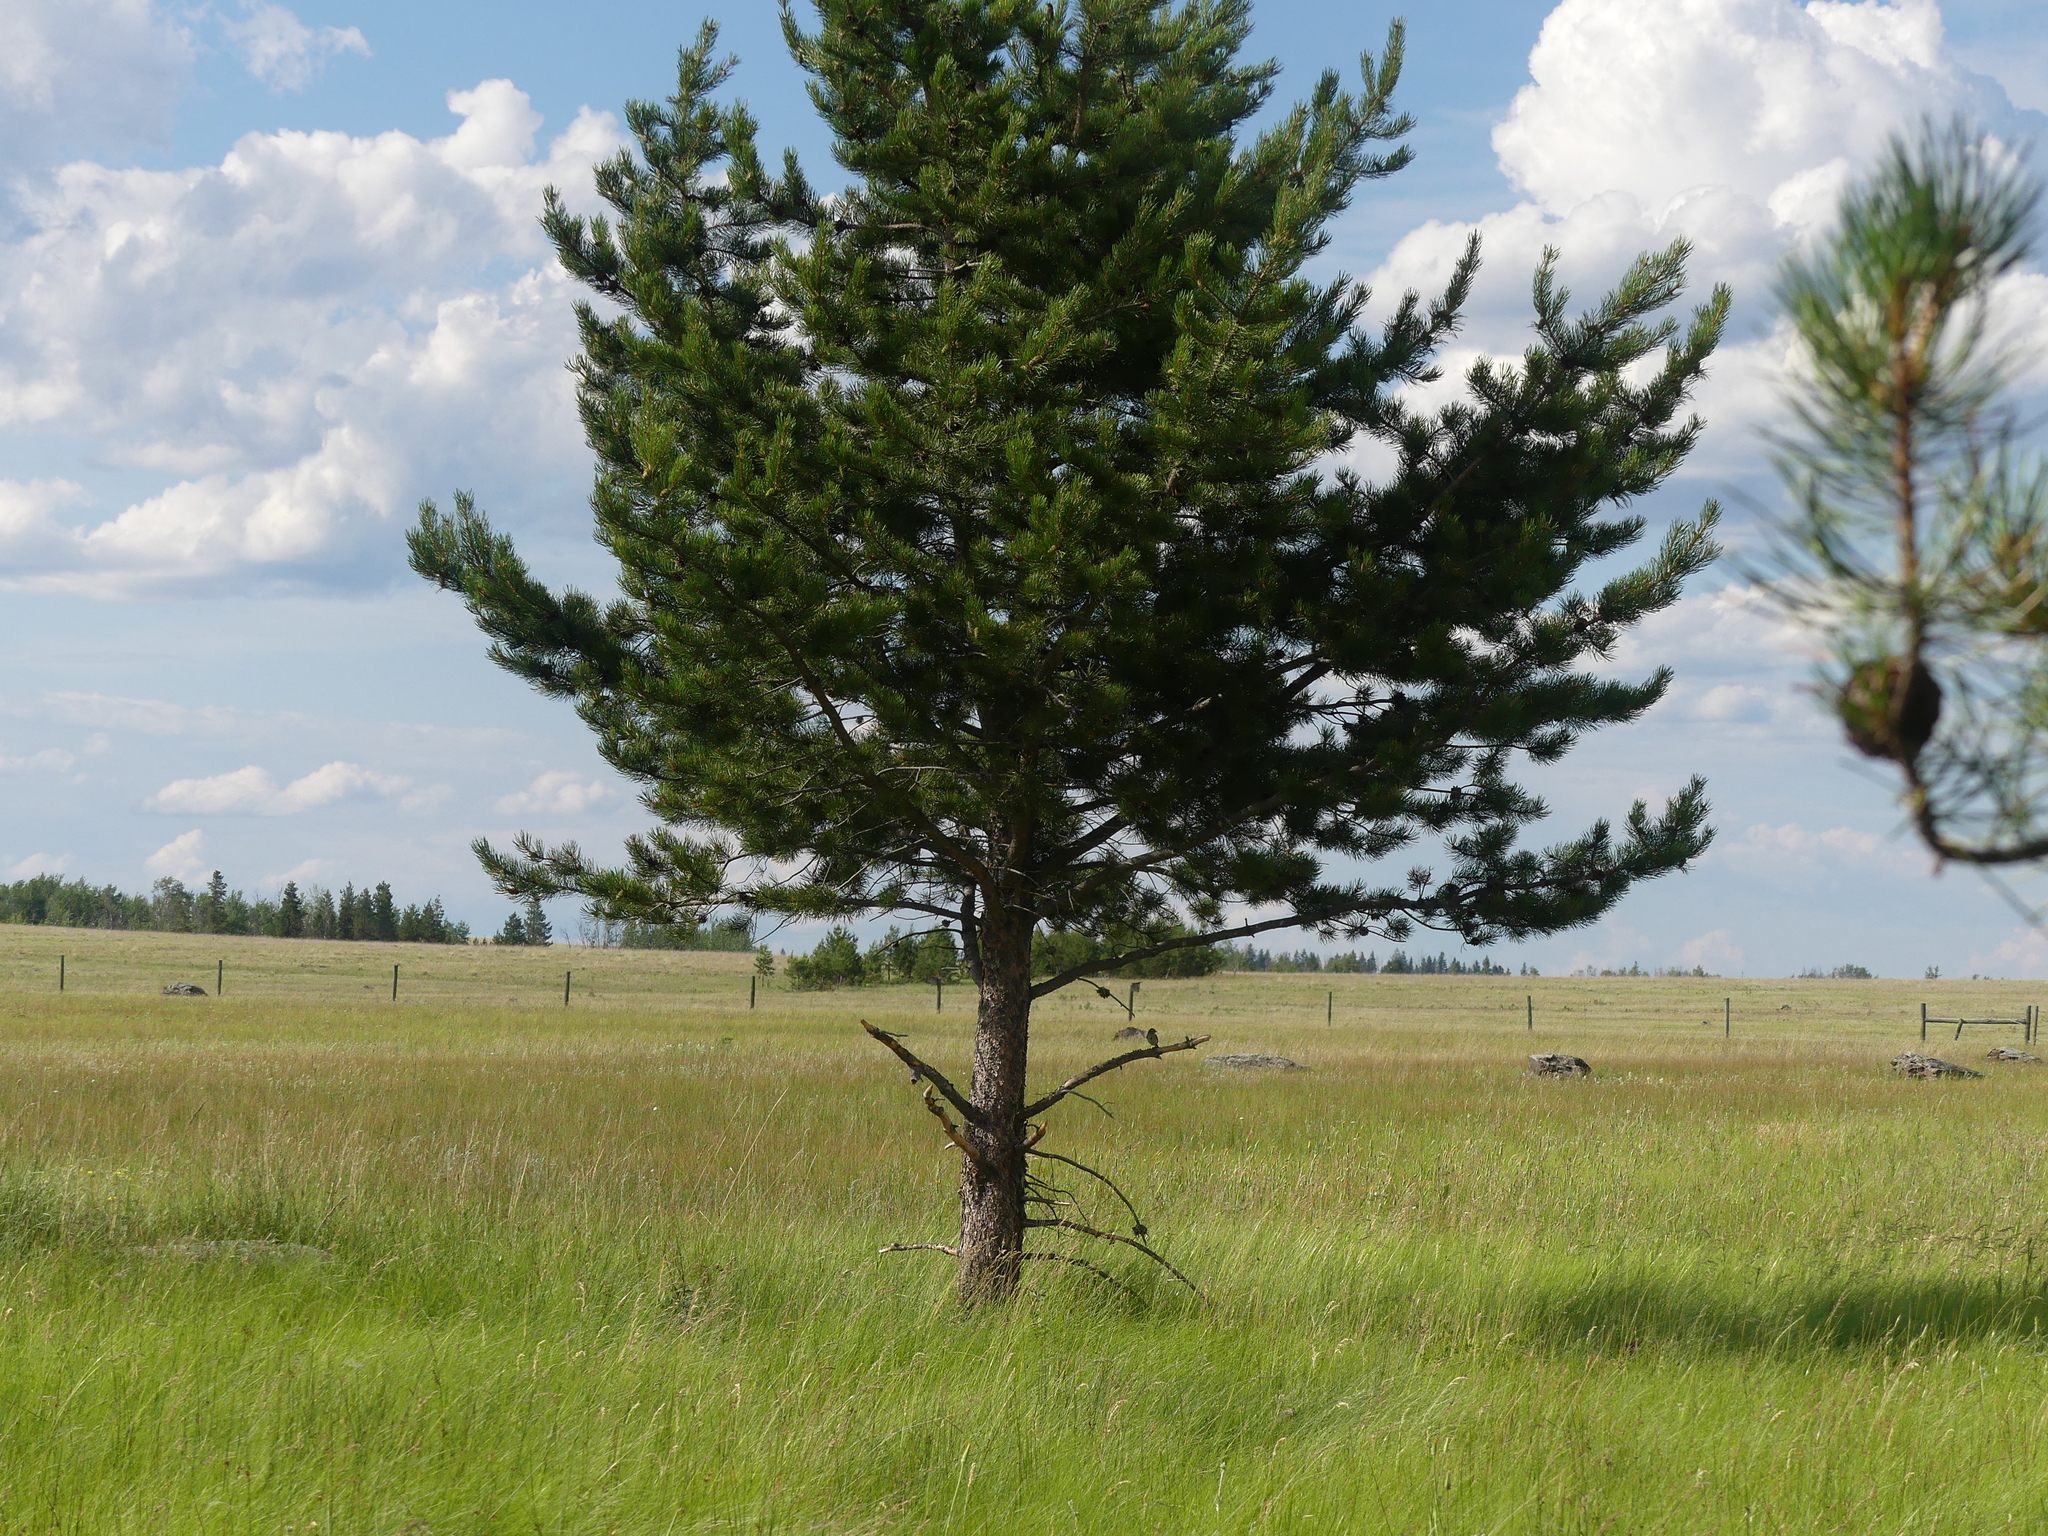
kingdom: Plantae
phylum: Tracheophyta
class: Pinopsida
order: Pinales
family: Pinaceae
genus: Pinus
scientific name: Pinus contorta
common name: Lodgepole pine
